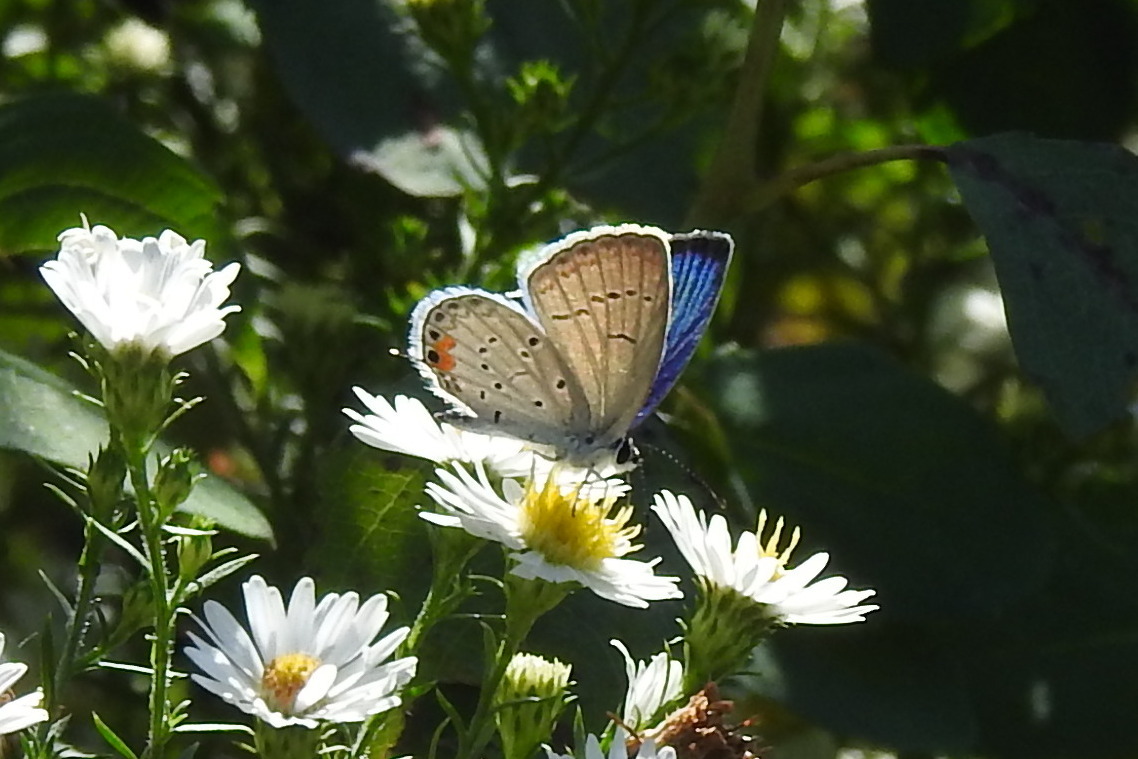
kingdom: Animalia
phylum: Arthropoda
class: Insecta
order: Lepidoptera
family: Lycaenidae
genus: Elkalyce
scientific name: Elkalyce comyntas
